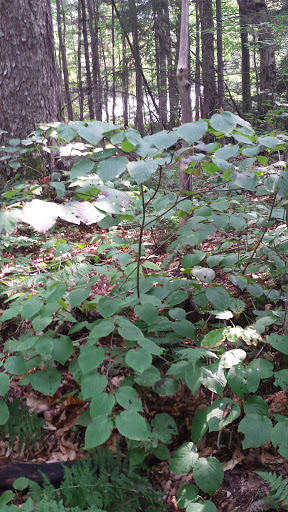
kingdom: Plantae
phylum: Tracheophyta
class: Magnoliopsida
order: Dipsacales
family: Viburnaceae
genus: Viburnum
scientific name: Viburnum lantanoides
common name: Hobblebush
